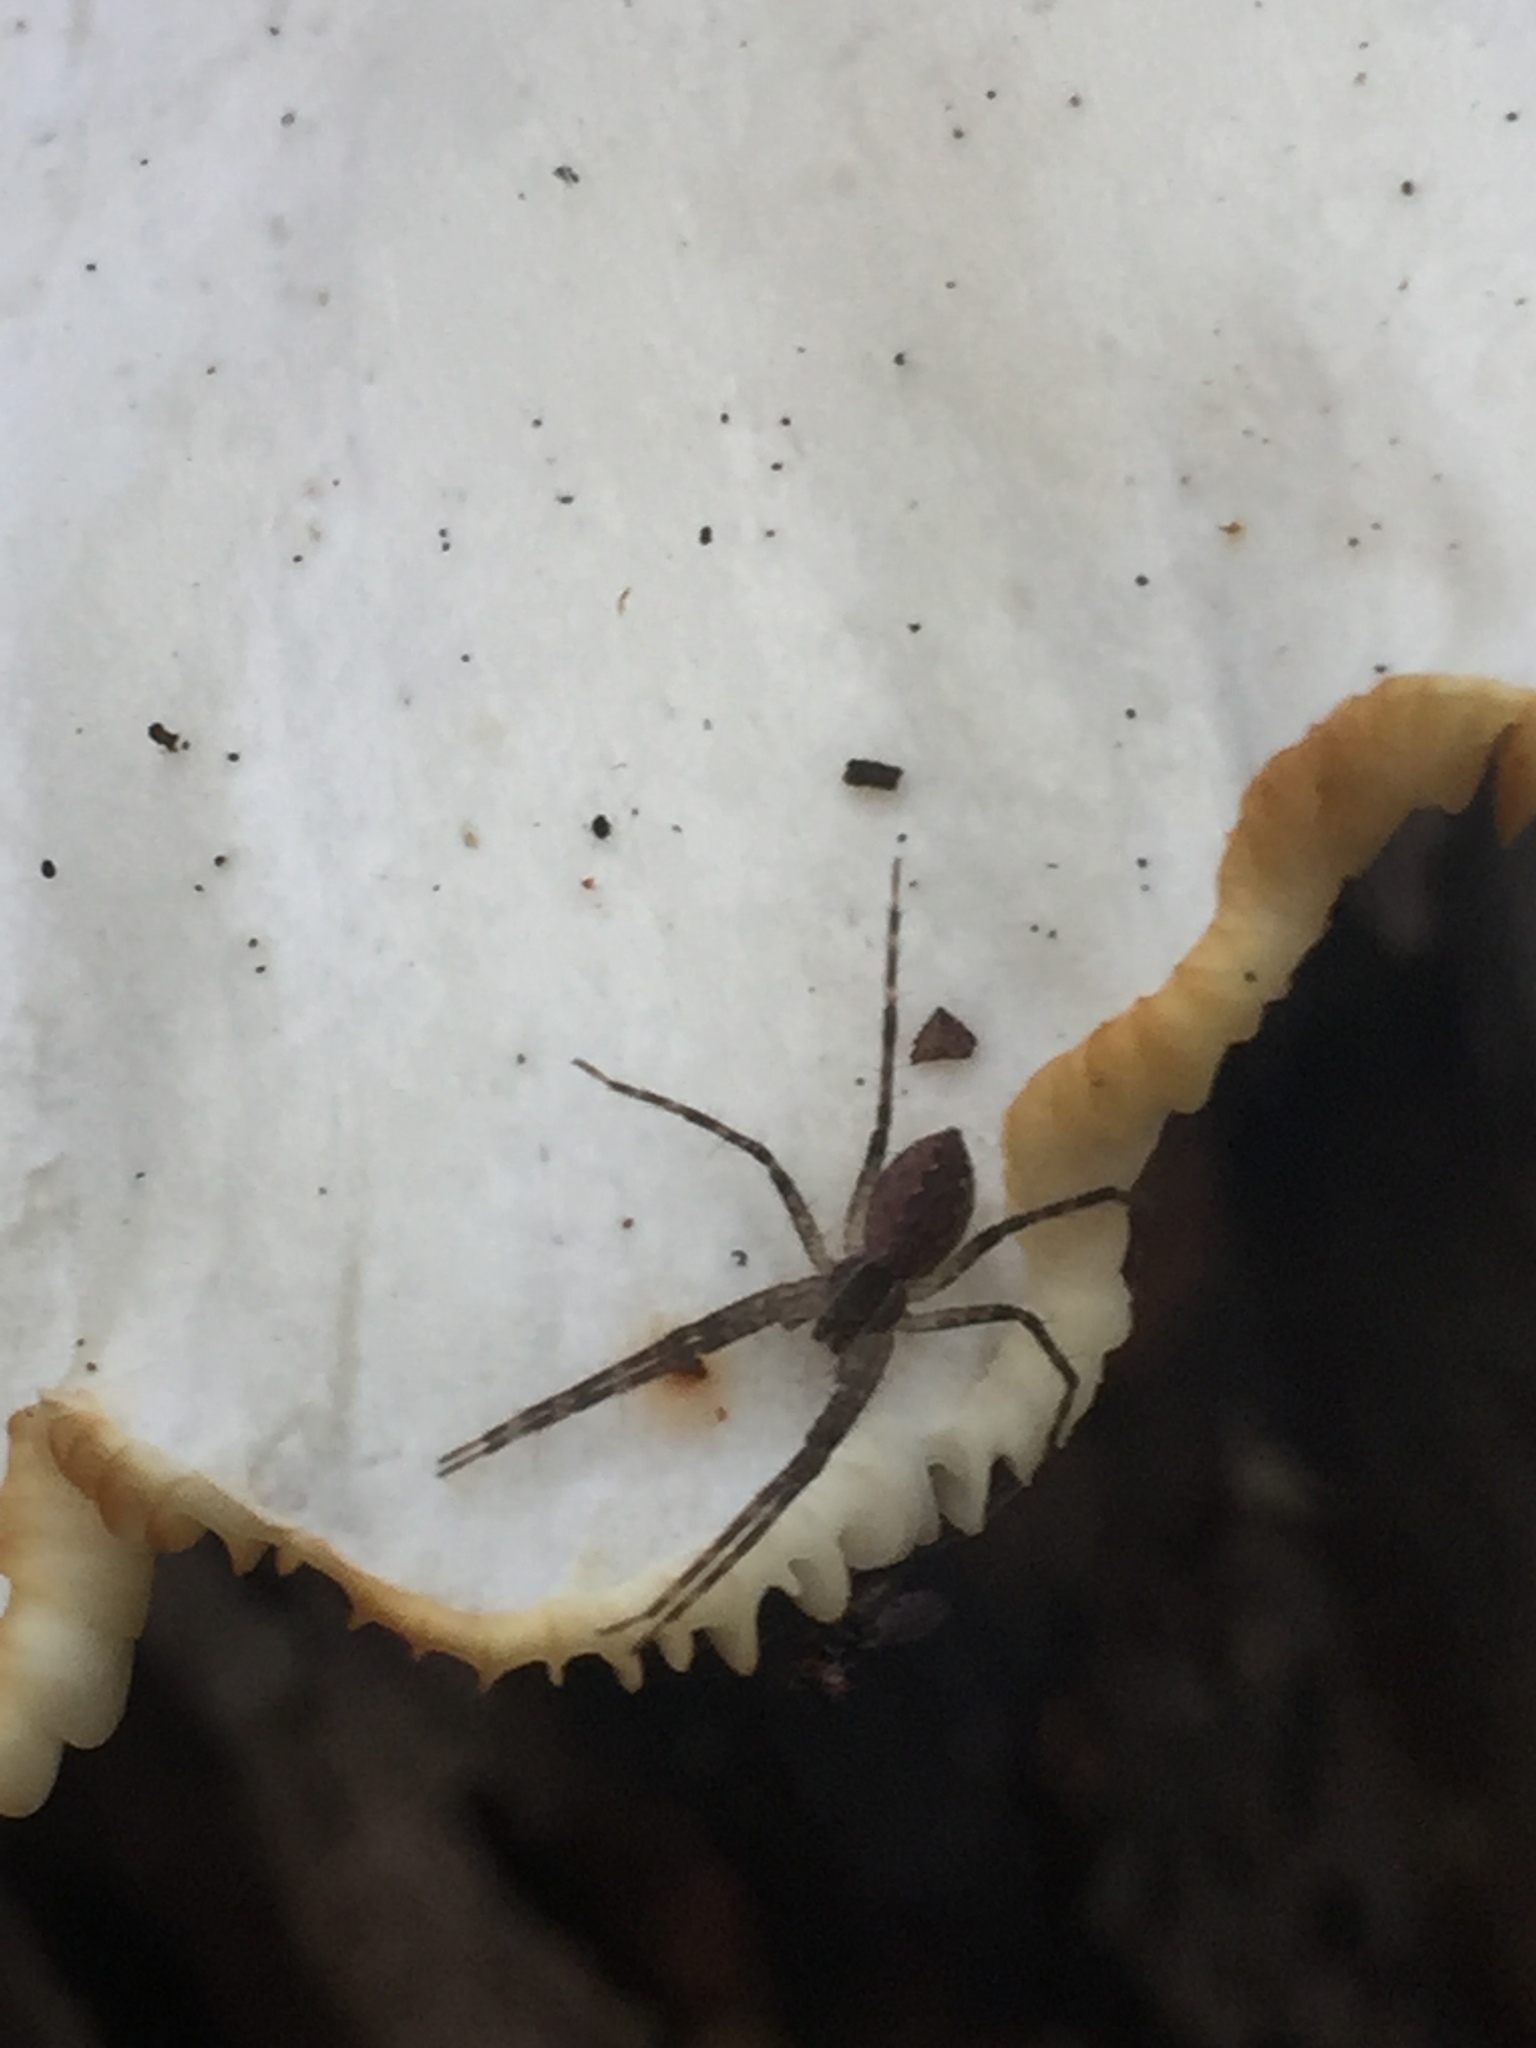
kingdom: Animalia
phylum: Arthropoda
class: Arachnida
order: Araneae
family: Pisauridae
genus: Pisaurina
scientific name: Pisaurina mira
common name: American nursery web spider
